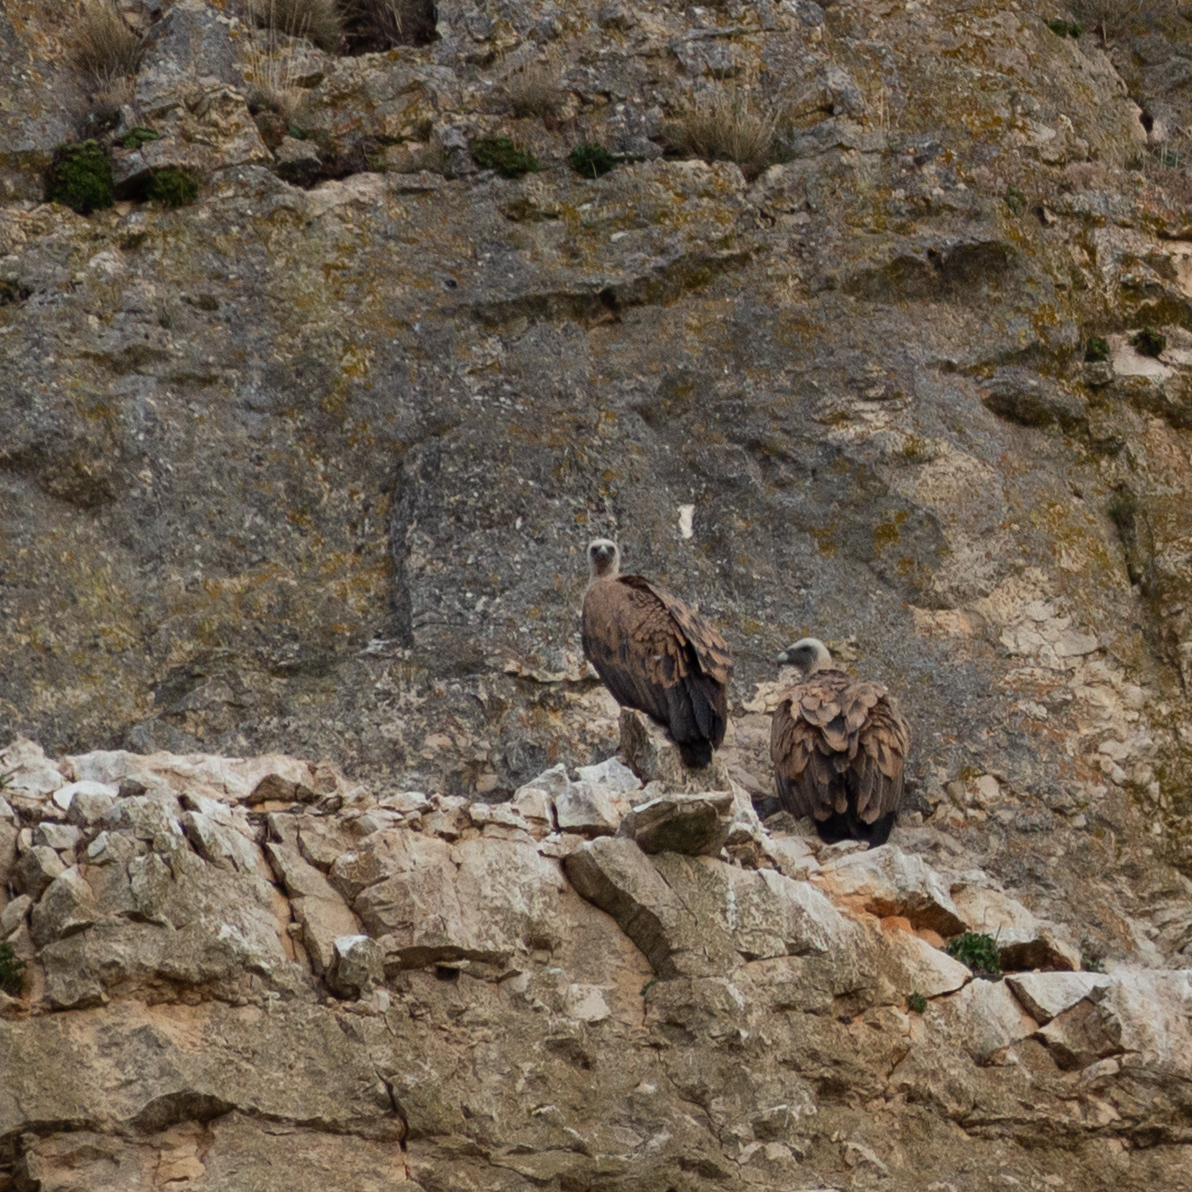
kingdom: Animalia
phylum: Chordata
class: Aves
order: Accipitriformes
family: Accipitridae
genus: Gyps
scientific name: Gyps fulvus
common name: Griffon vulture
